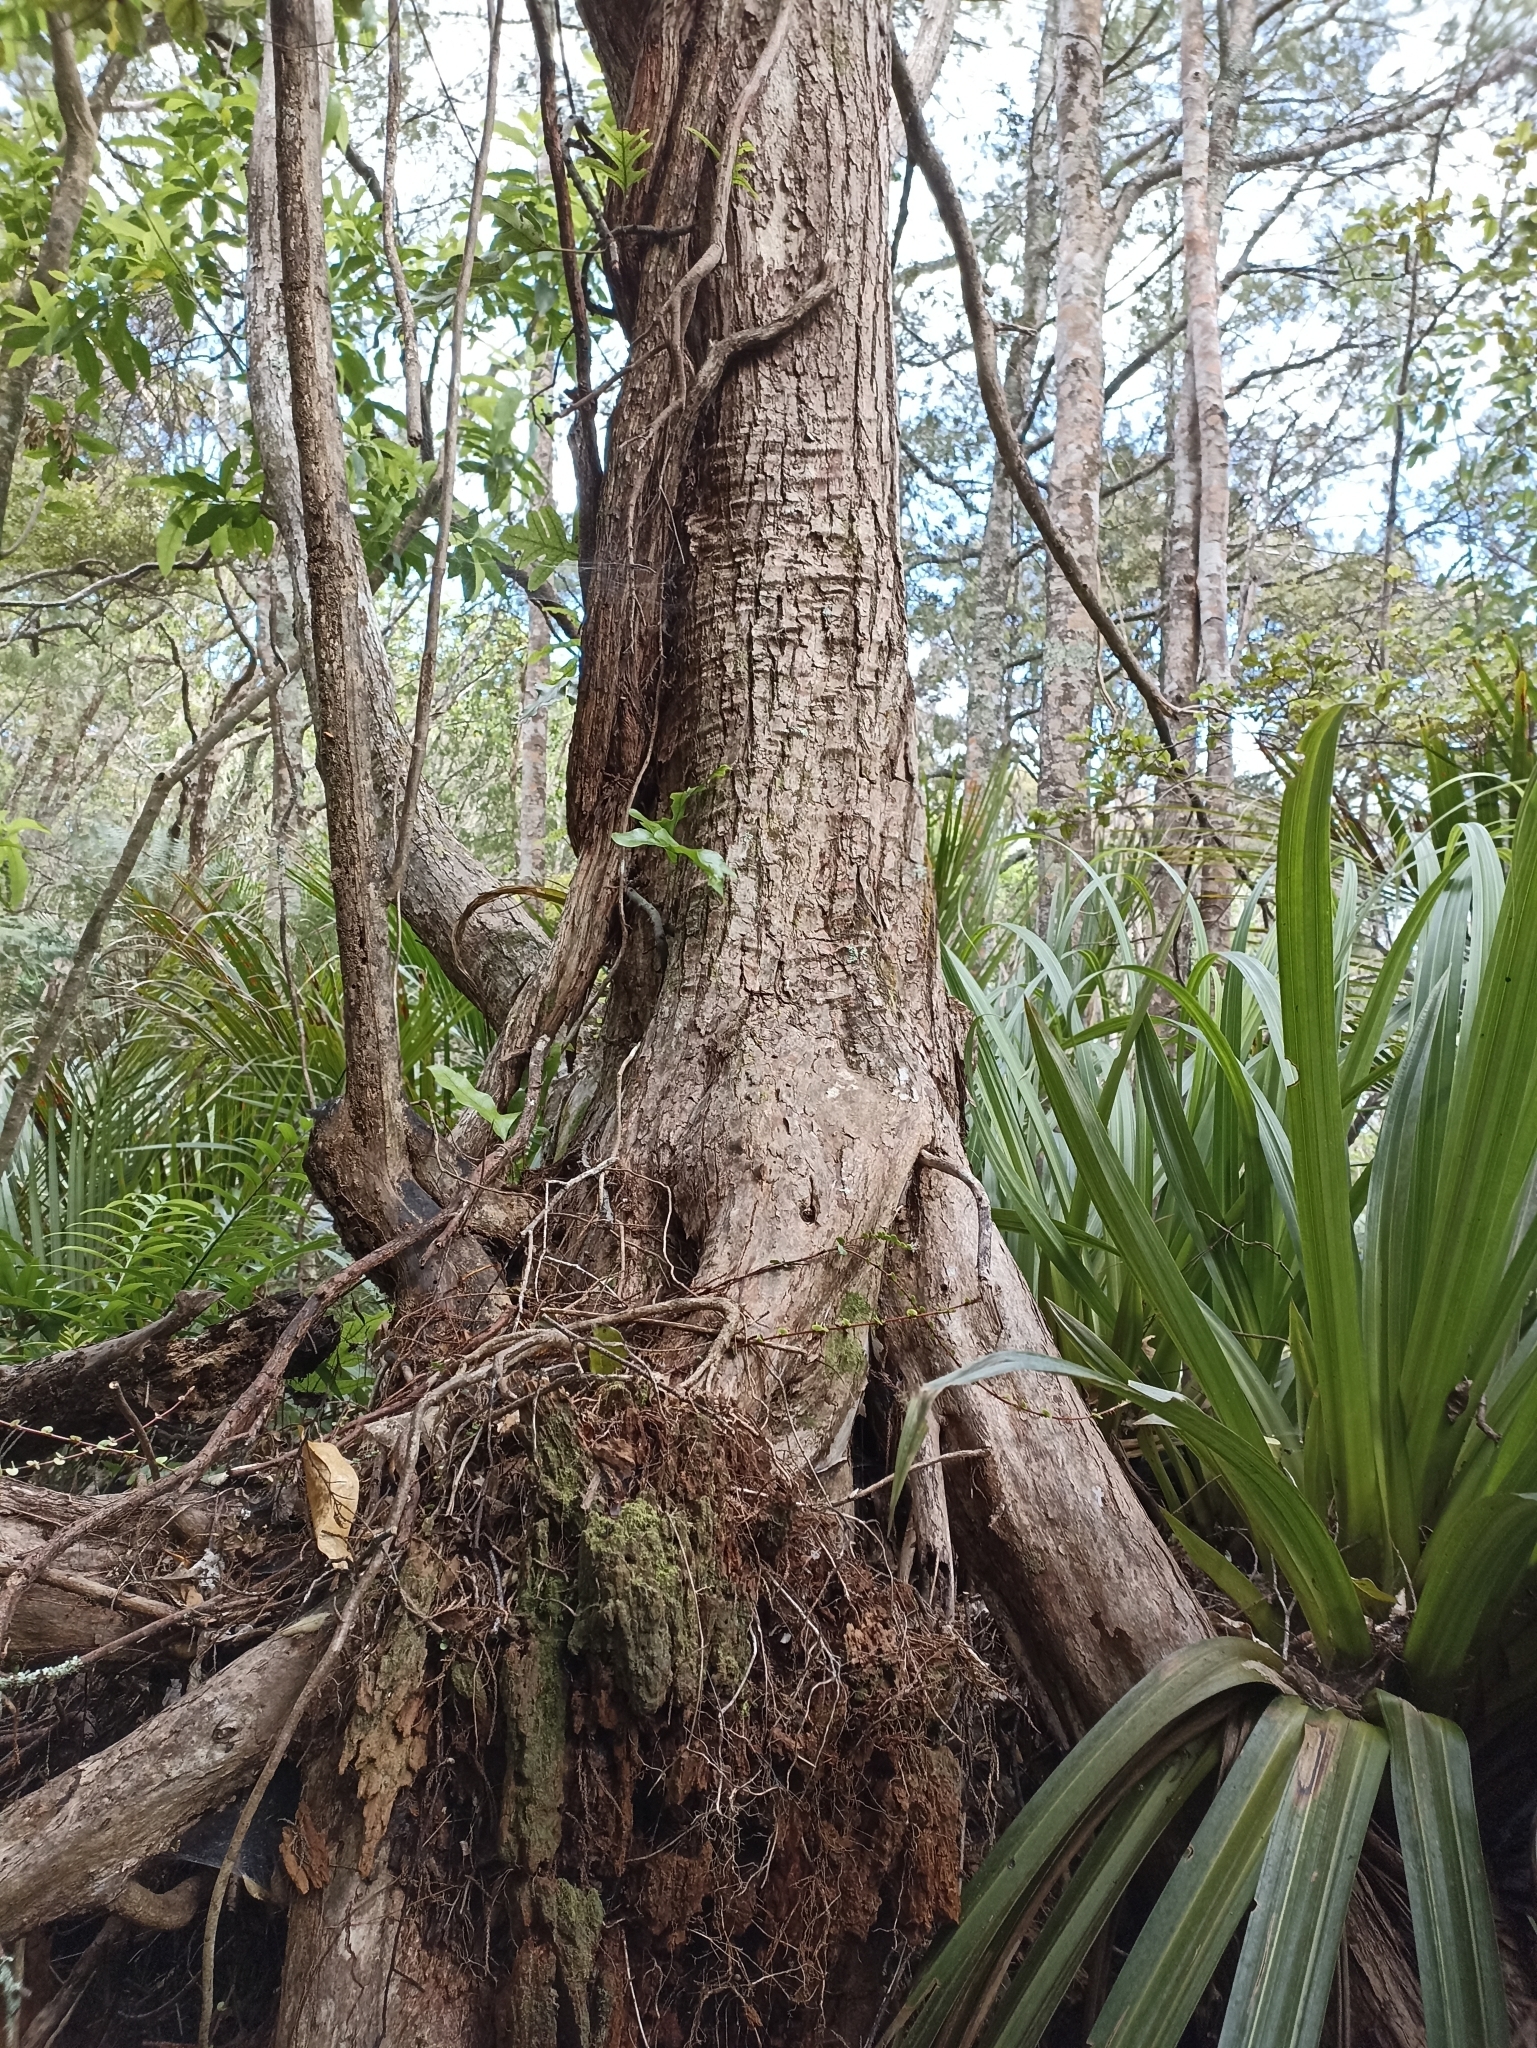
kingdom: Plantae
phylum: Tracheophyta
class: Magnoliopsida
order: Myrtales
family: Myrtaceae
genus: Metrosideros
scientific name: Metrosideros robusta
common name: Northern rata
